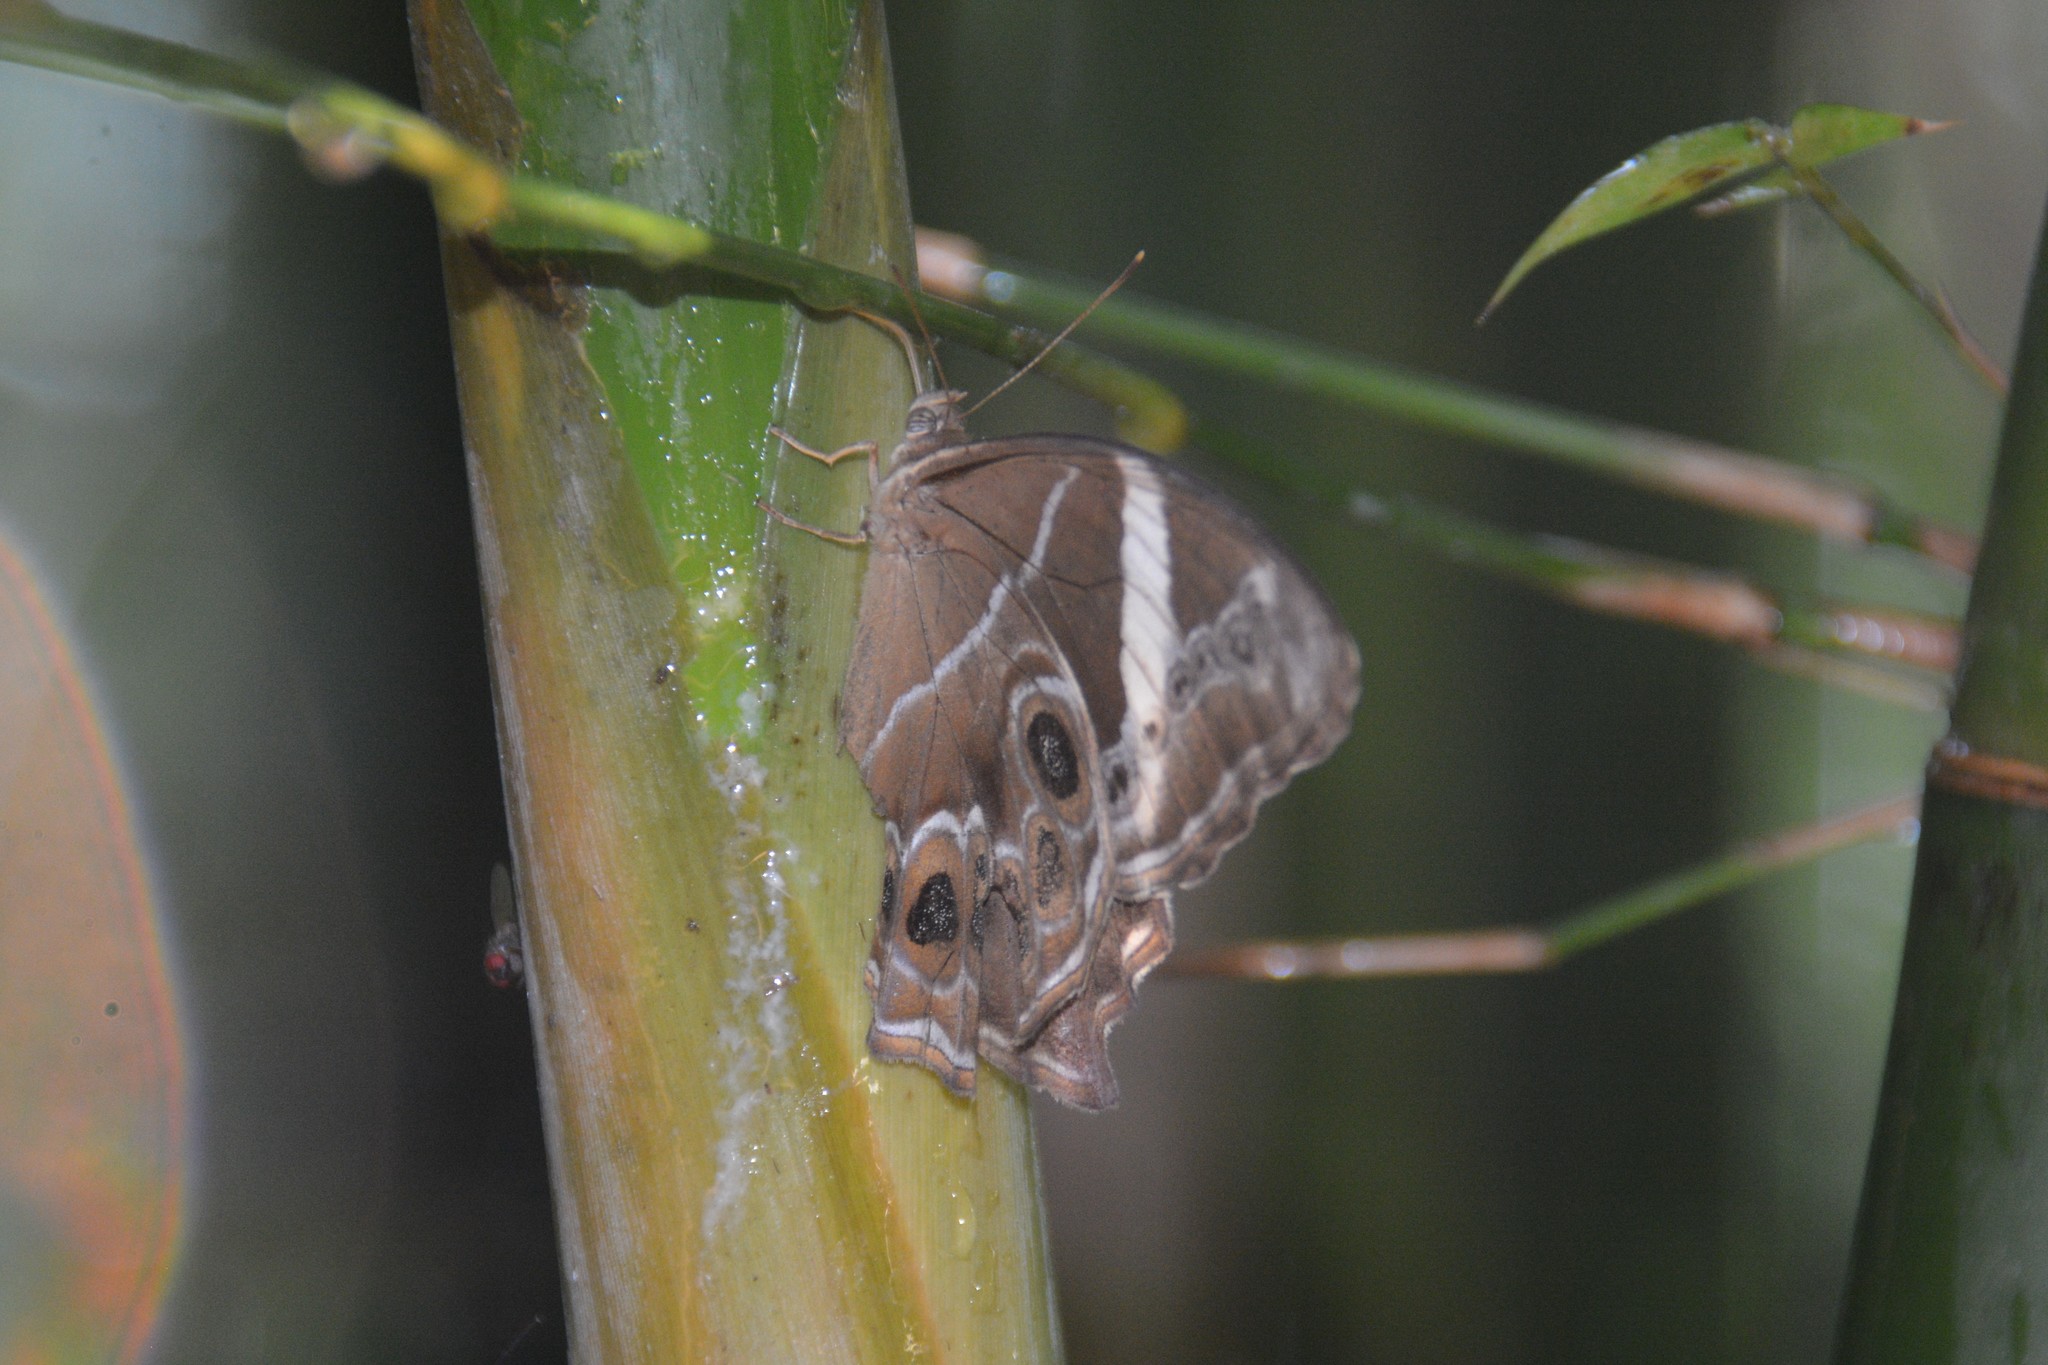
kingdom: Animalia
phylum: Arthropoda
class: Insecta
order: Lepidoptera
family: Nymphalidae
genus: Lethe
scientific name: Lethe europa
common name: Bamboo treebrown
